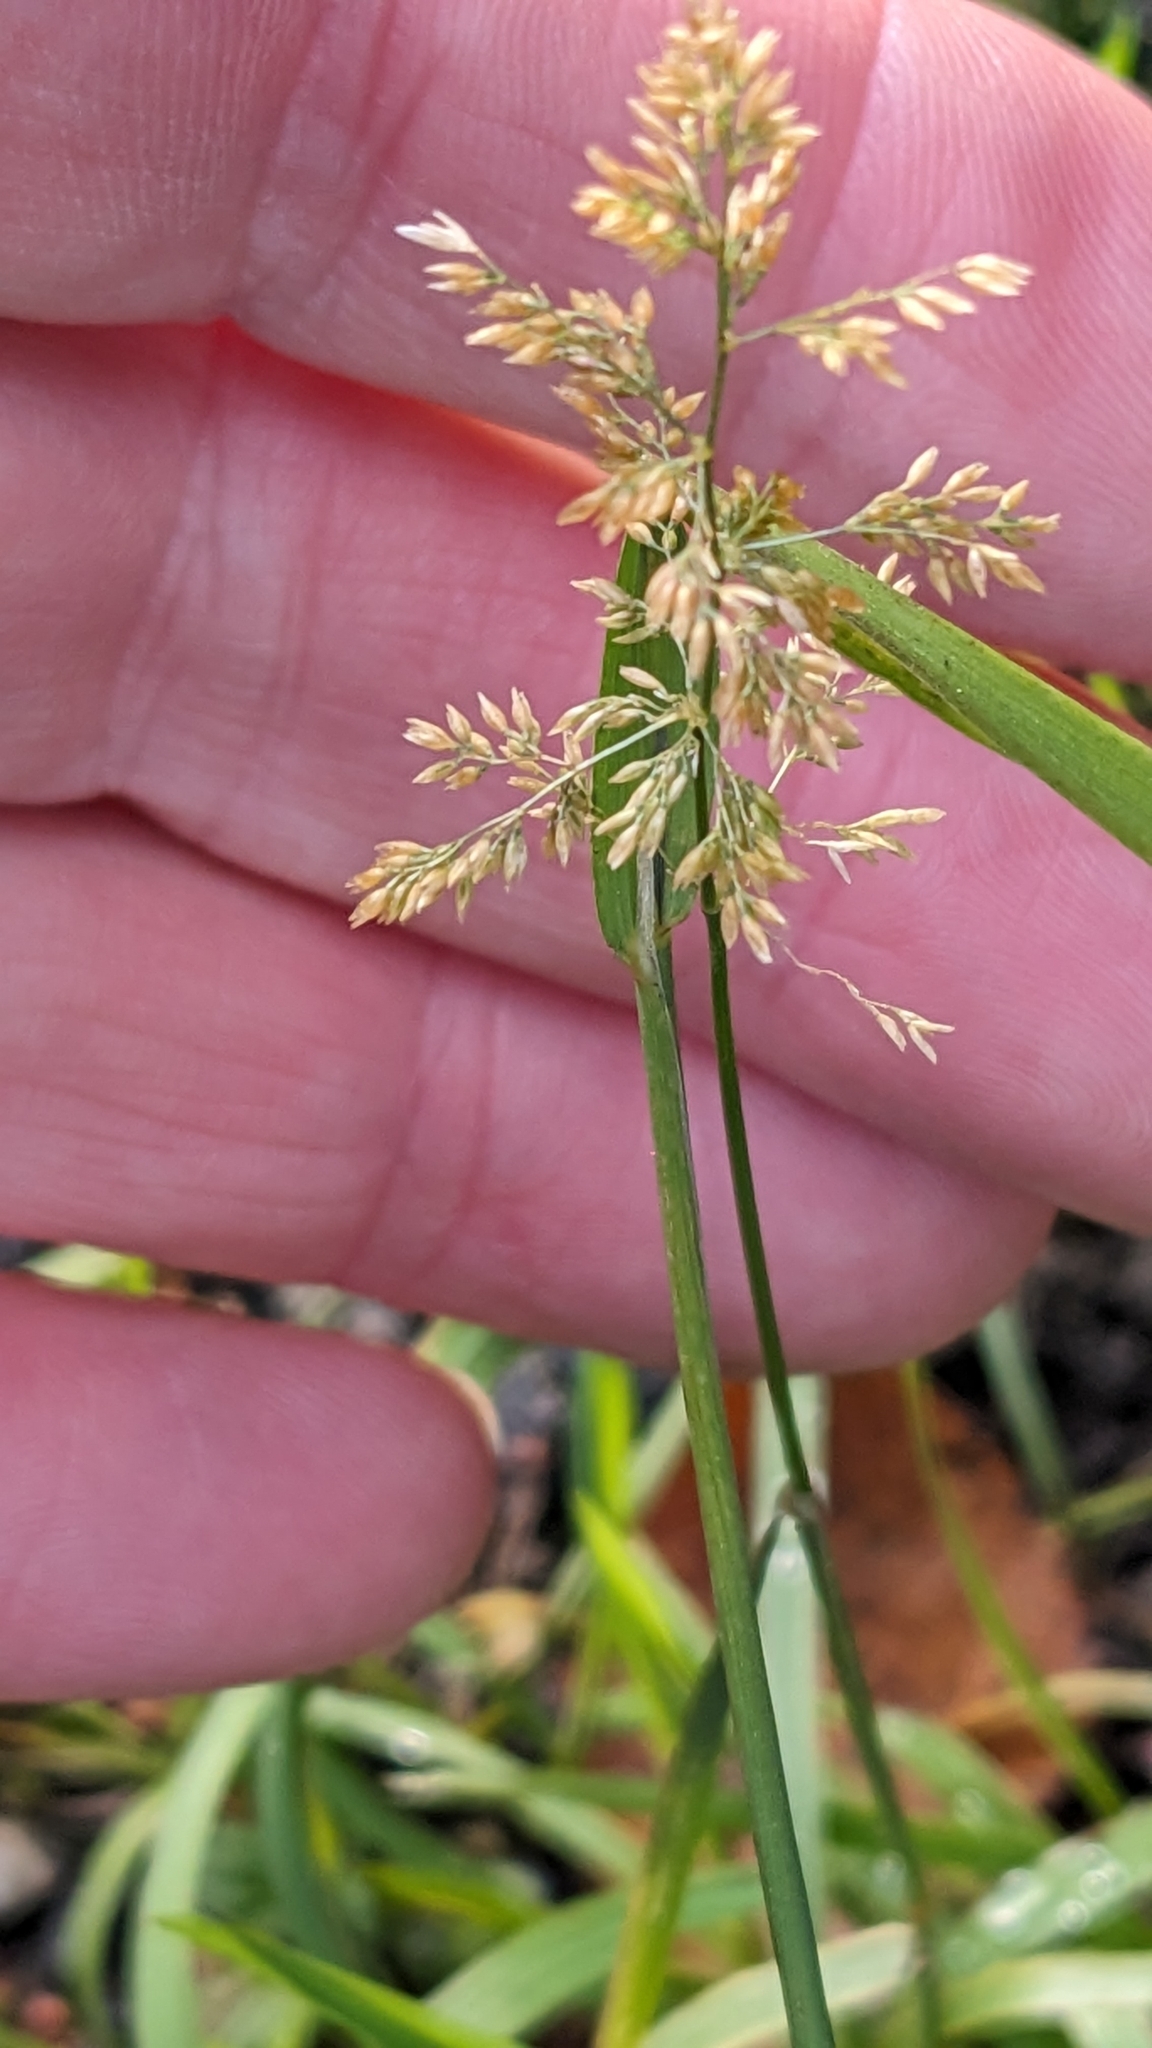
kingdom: Plantae
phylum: Tracheophyta
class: Liliopsida
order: Poales
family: Poaceae
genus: Polypogon
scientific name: Polypogon viridis
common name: Water bent
